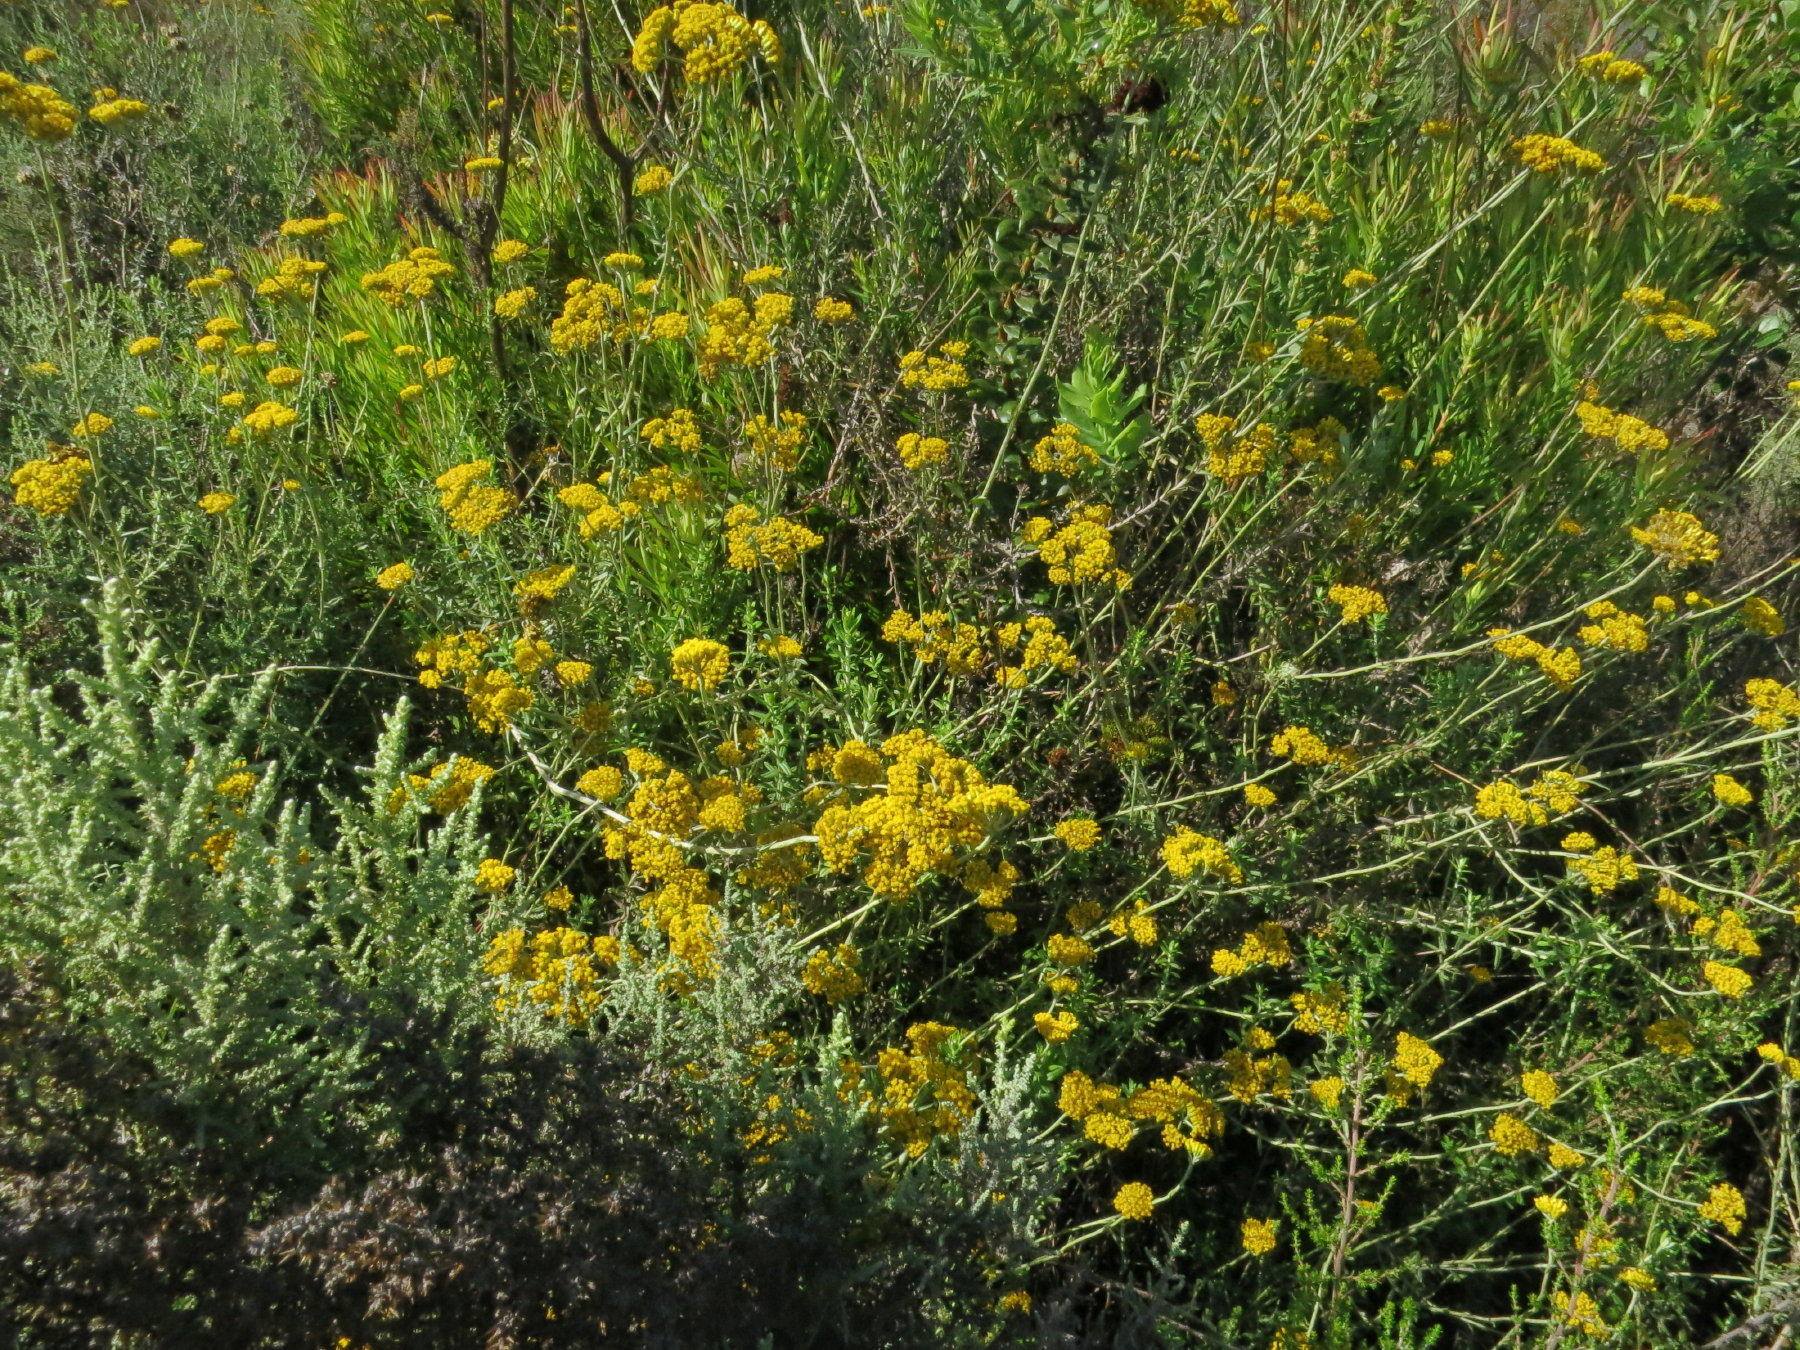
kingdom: Plantae
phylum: Tracheophyta
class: Magnoliopsida
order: Asterales
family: Asteraceae
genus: Helichrysum
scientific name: Helichrysum cymosum
